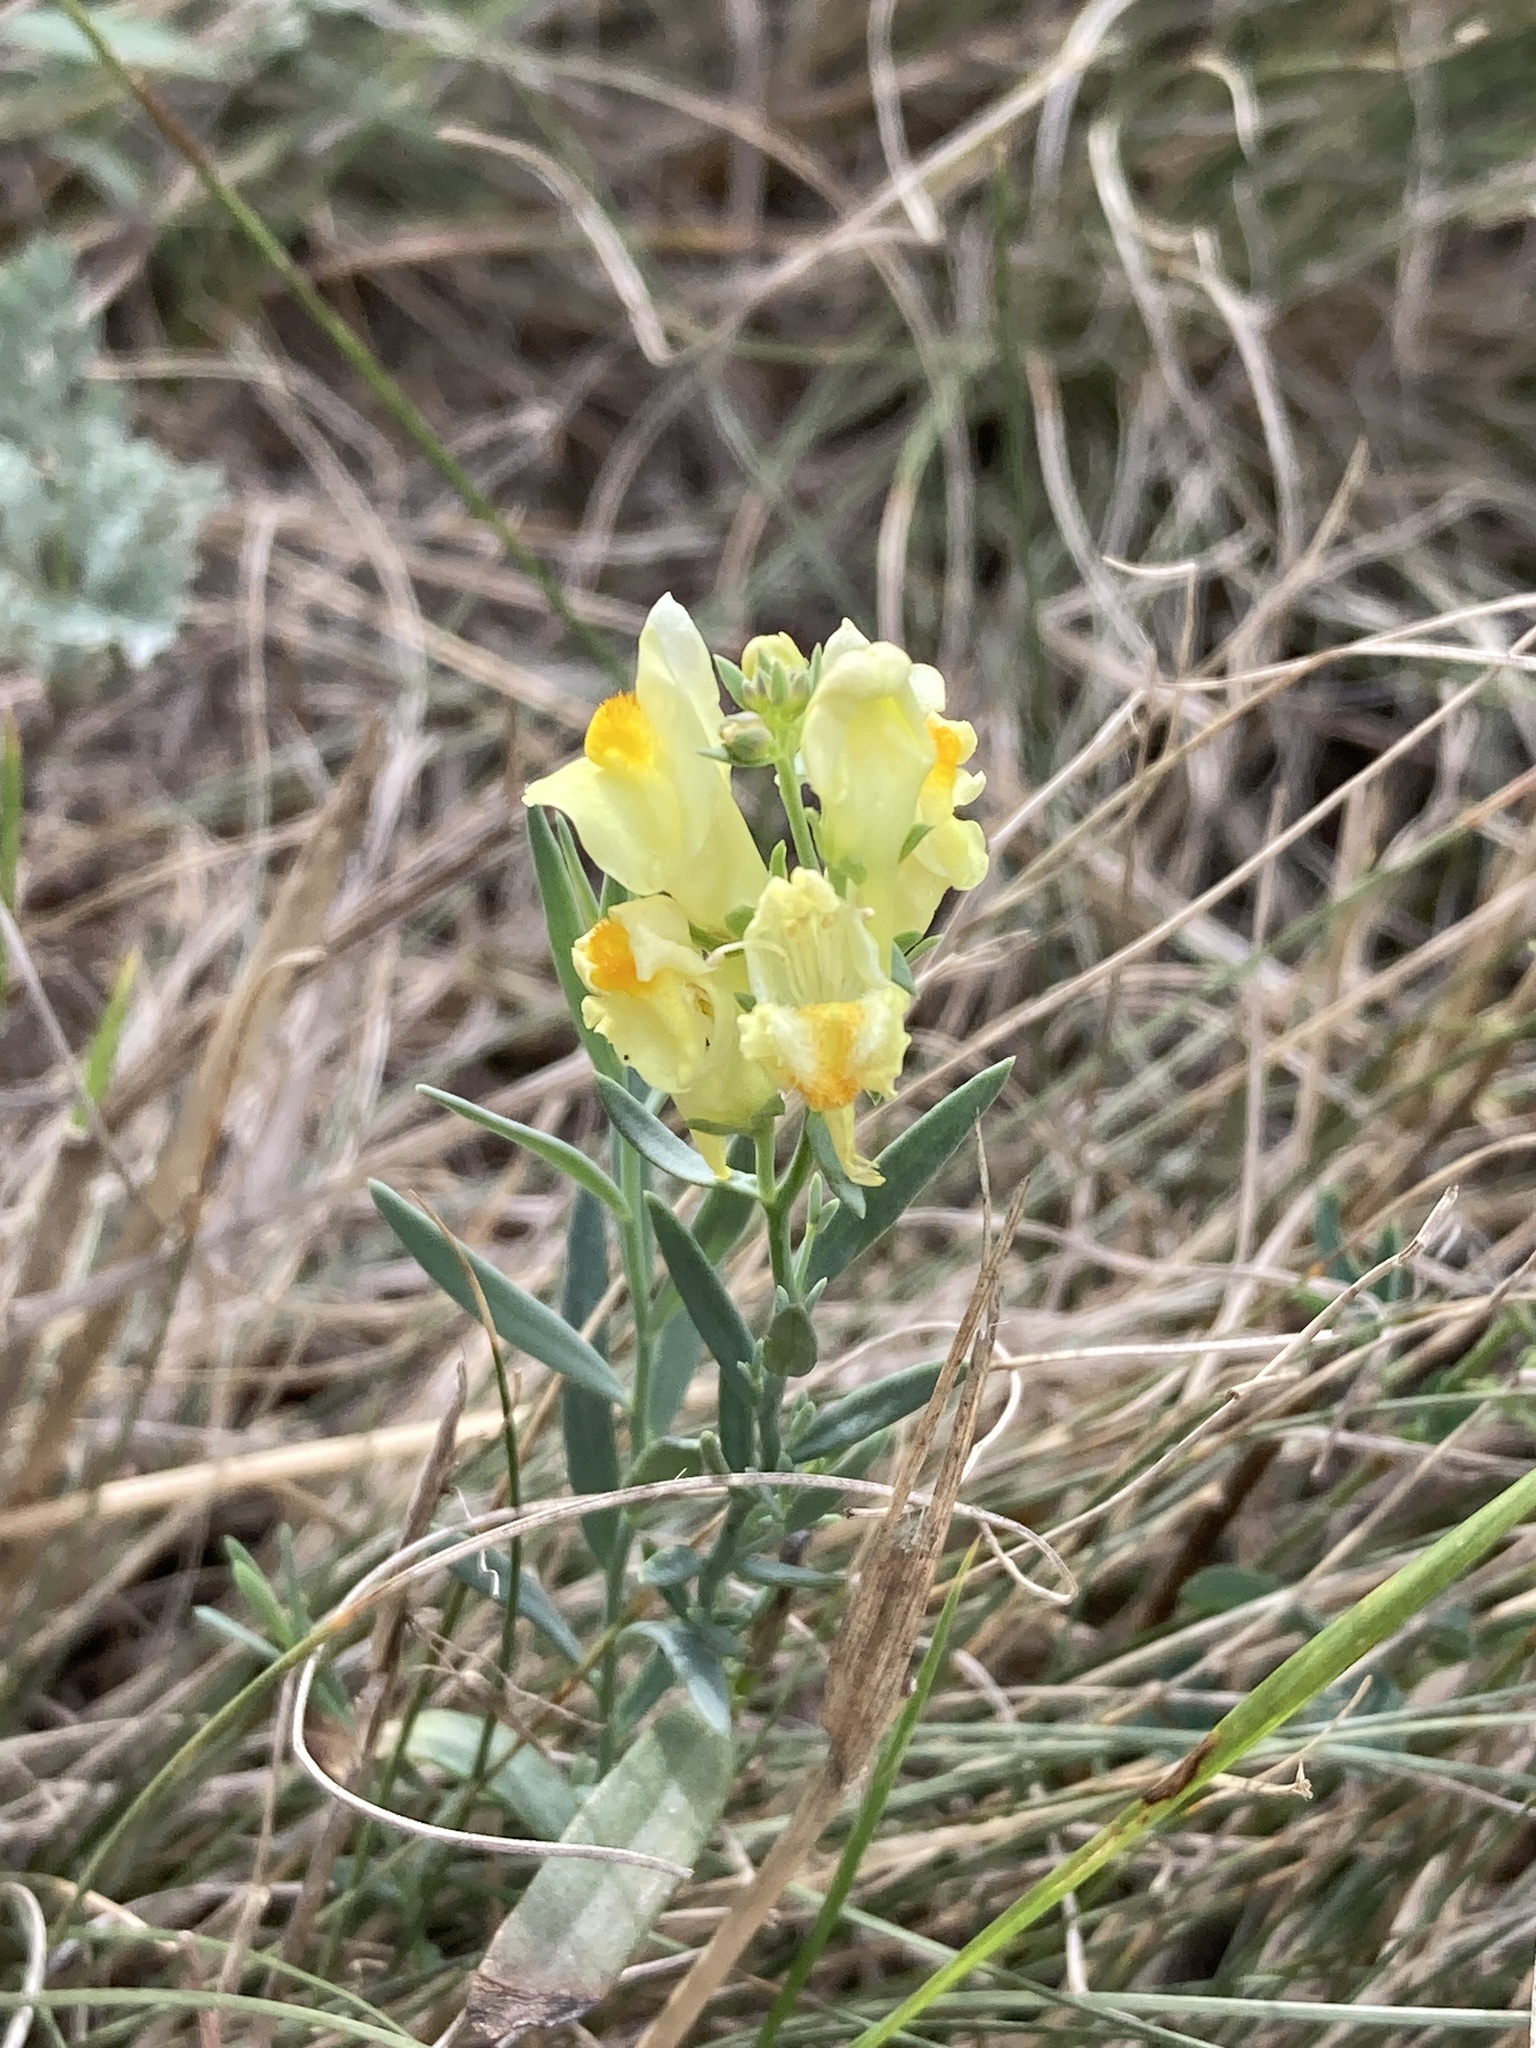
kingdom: Plantae
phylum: Tracheophyta
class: Magnoliopsida
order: Lamiales
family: Plantaginaceae
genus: Linaria
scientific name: Linaria vulgaris
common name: Butter and eggs
